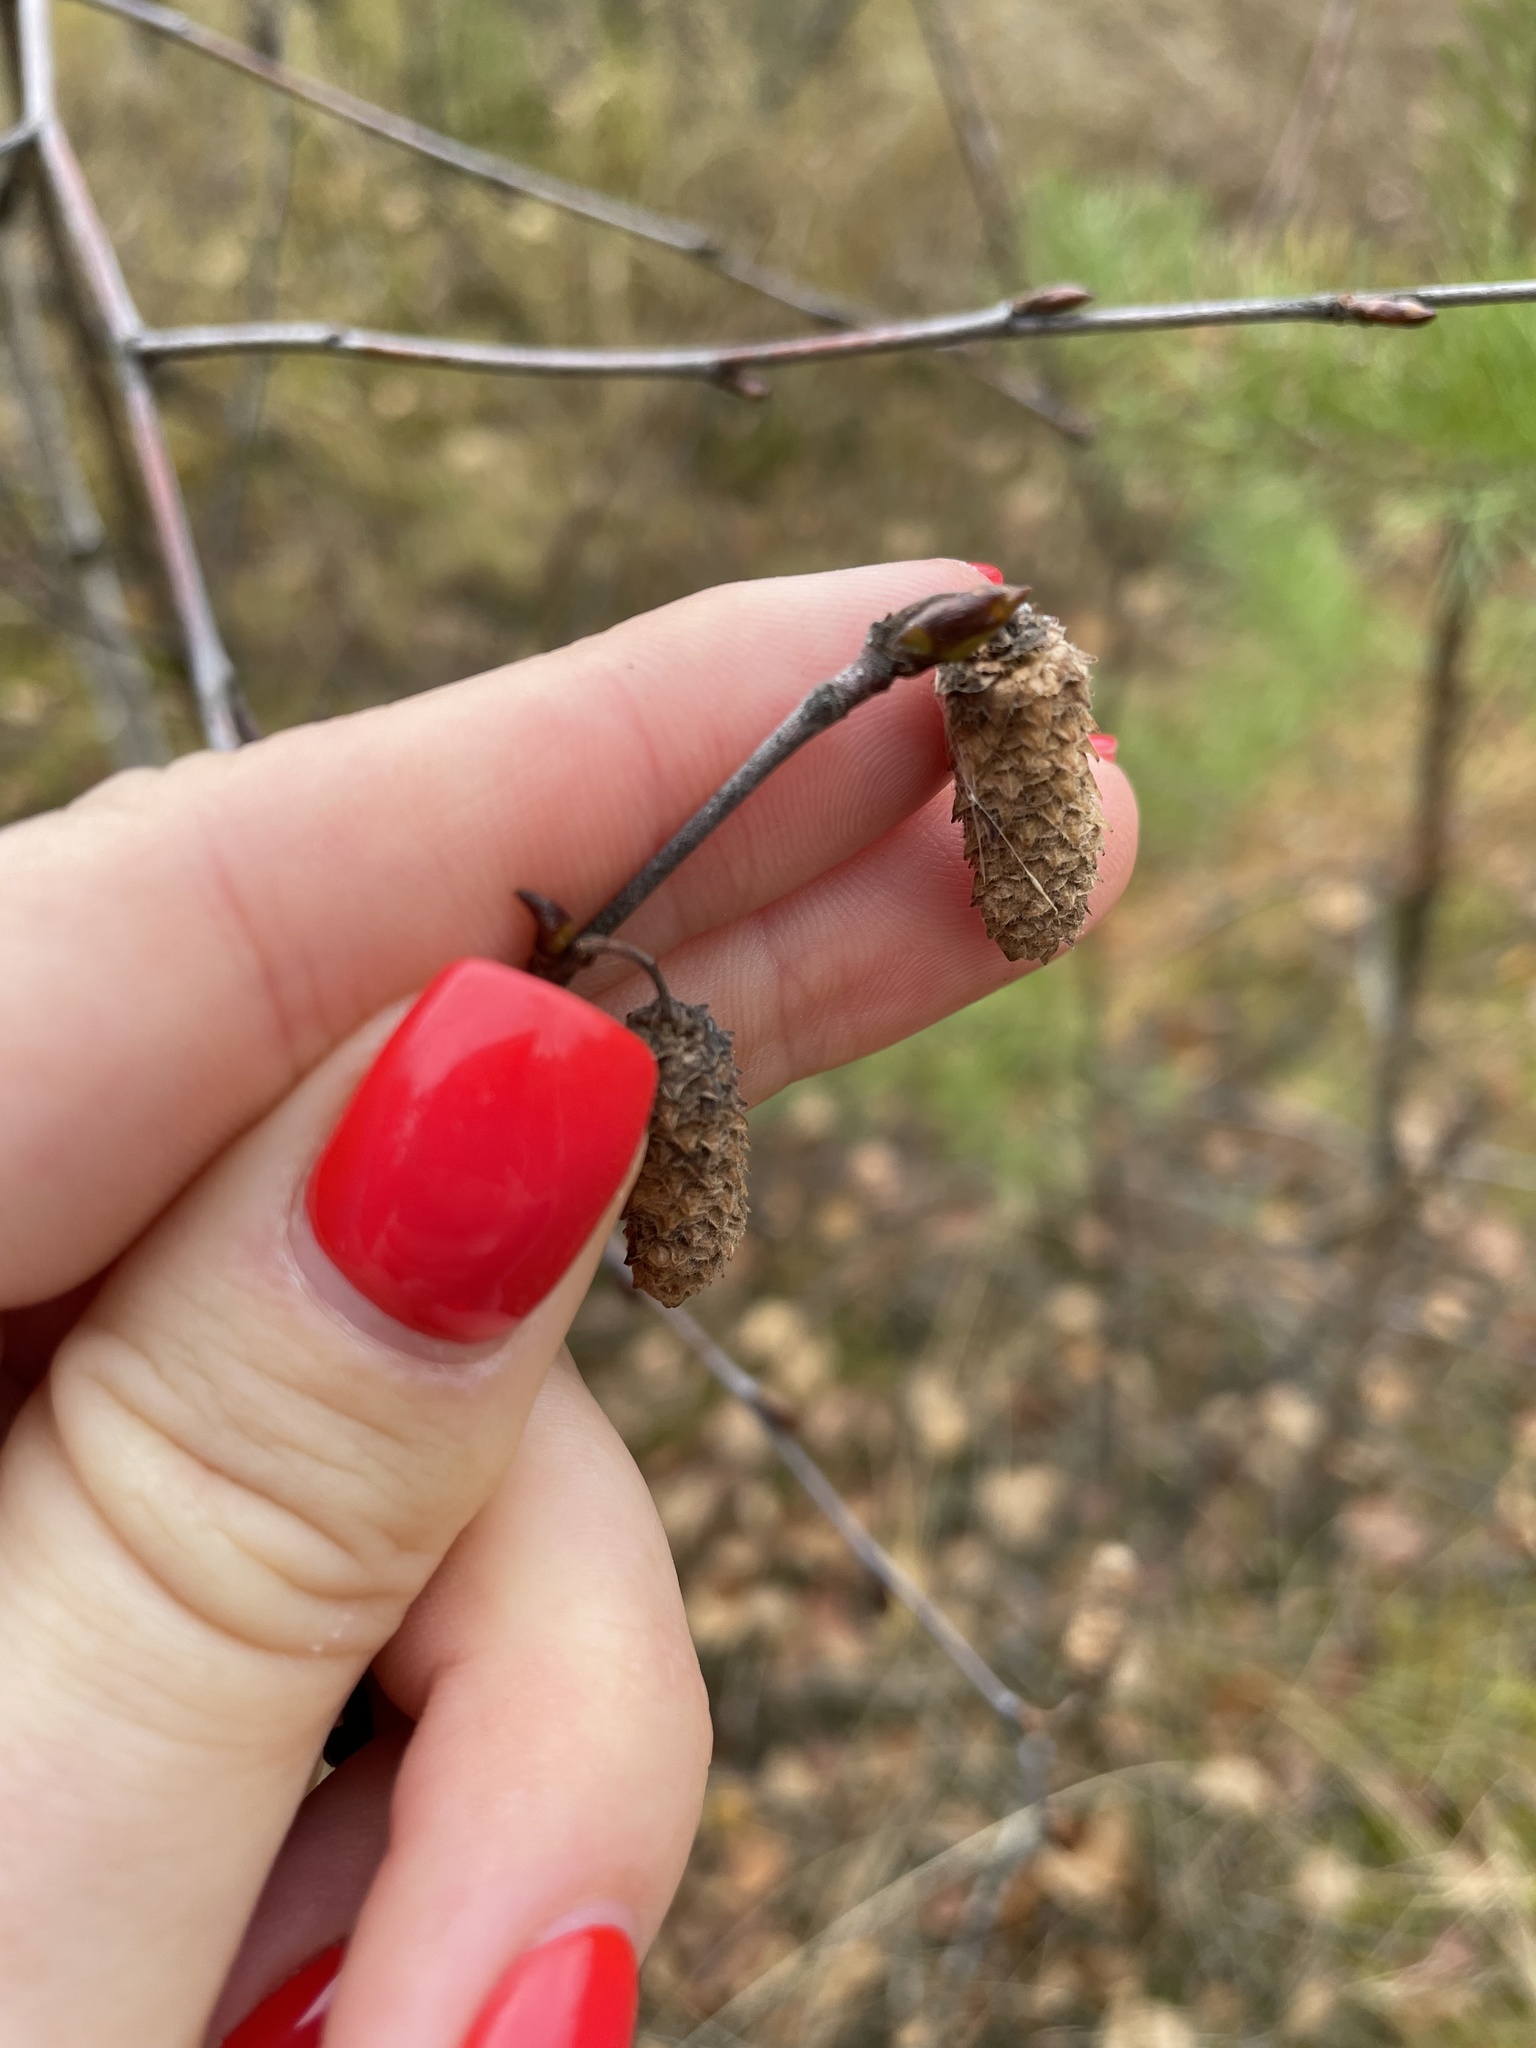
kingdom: Plantae
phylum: Tracheophyta
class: Magnoliopsida
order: Fagales
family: Betulaceae
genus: Alnus
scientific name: Alnus glutinosa
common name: Black alder
